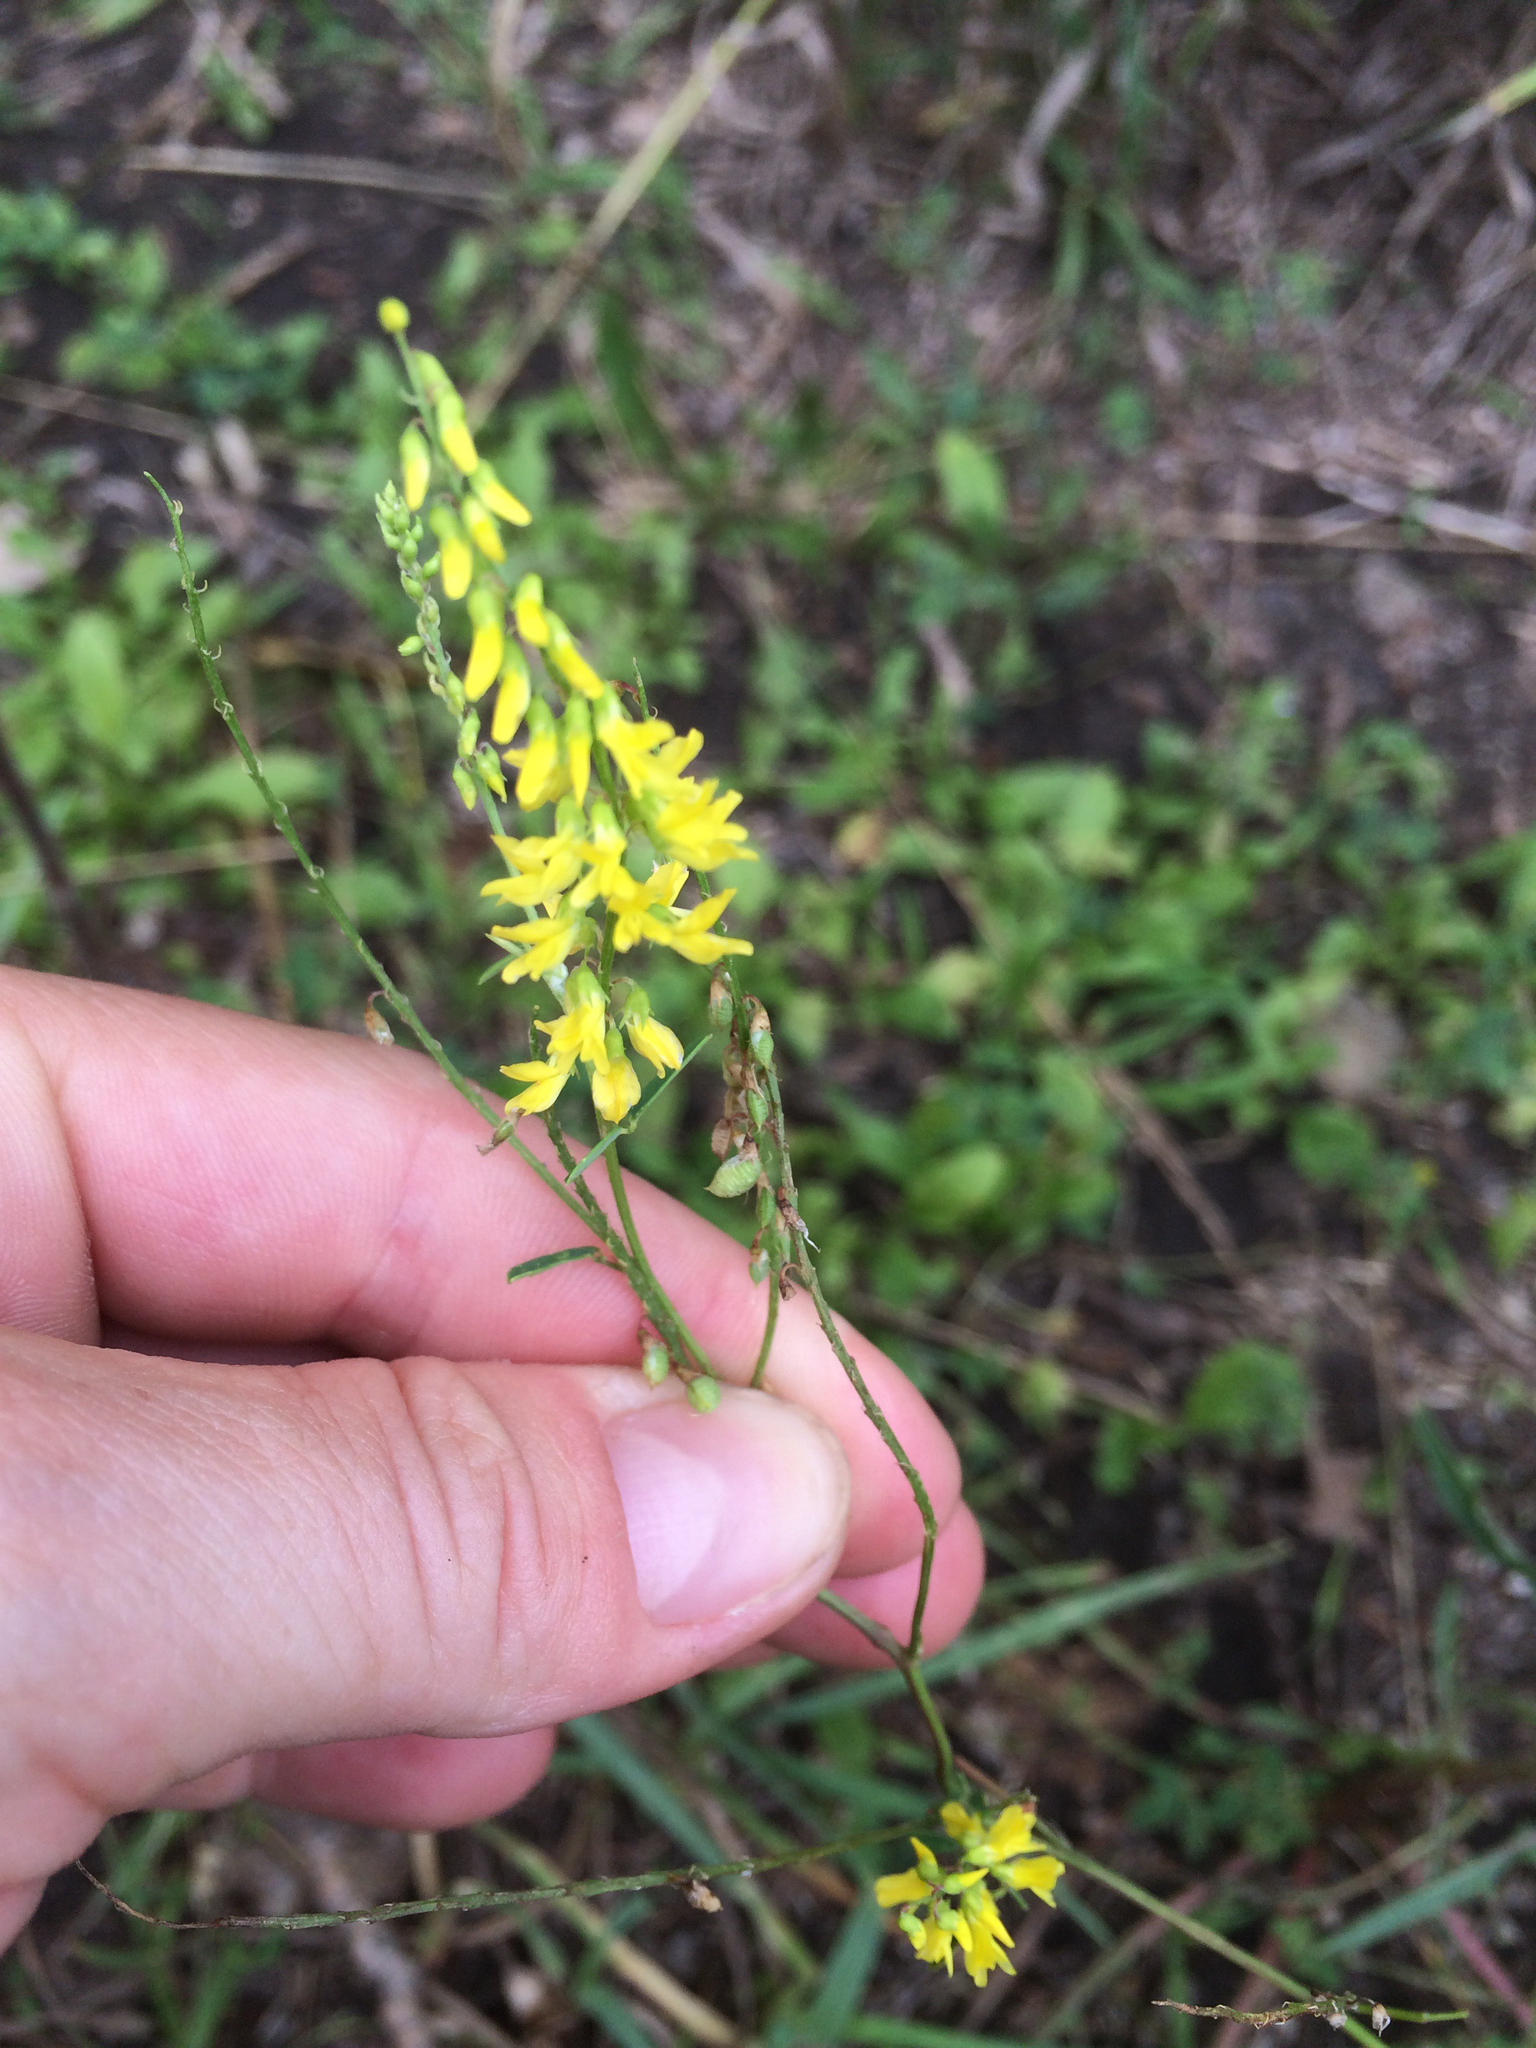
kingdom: Plantae
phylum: Tracheophyta
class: Magnoliopsida
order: Fabales
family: Fabaceae
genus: Melilotus
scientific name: Melilotus officinalis
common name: Sweetclover
